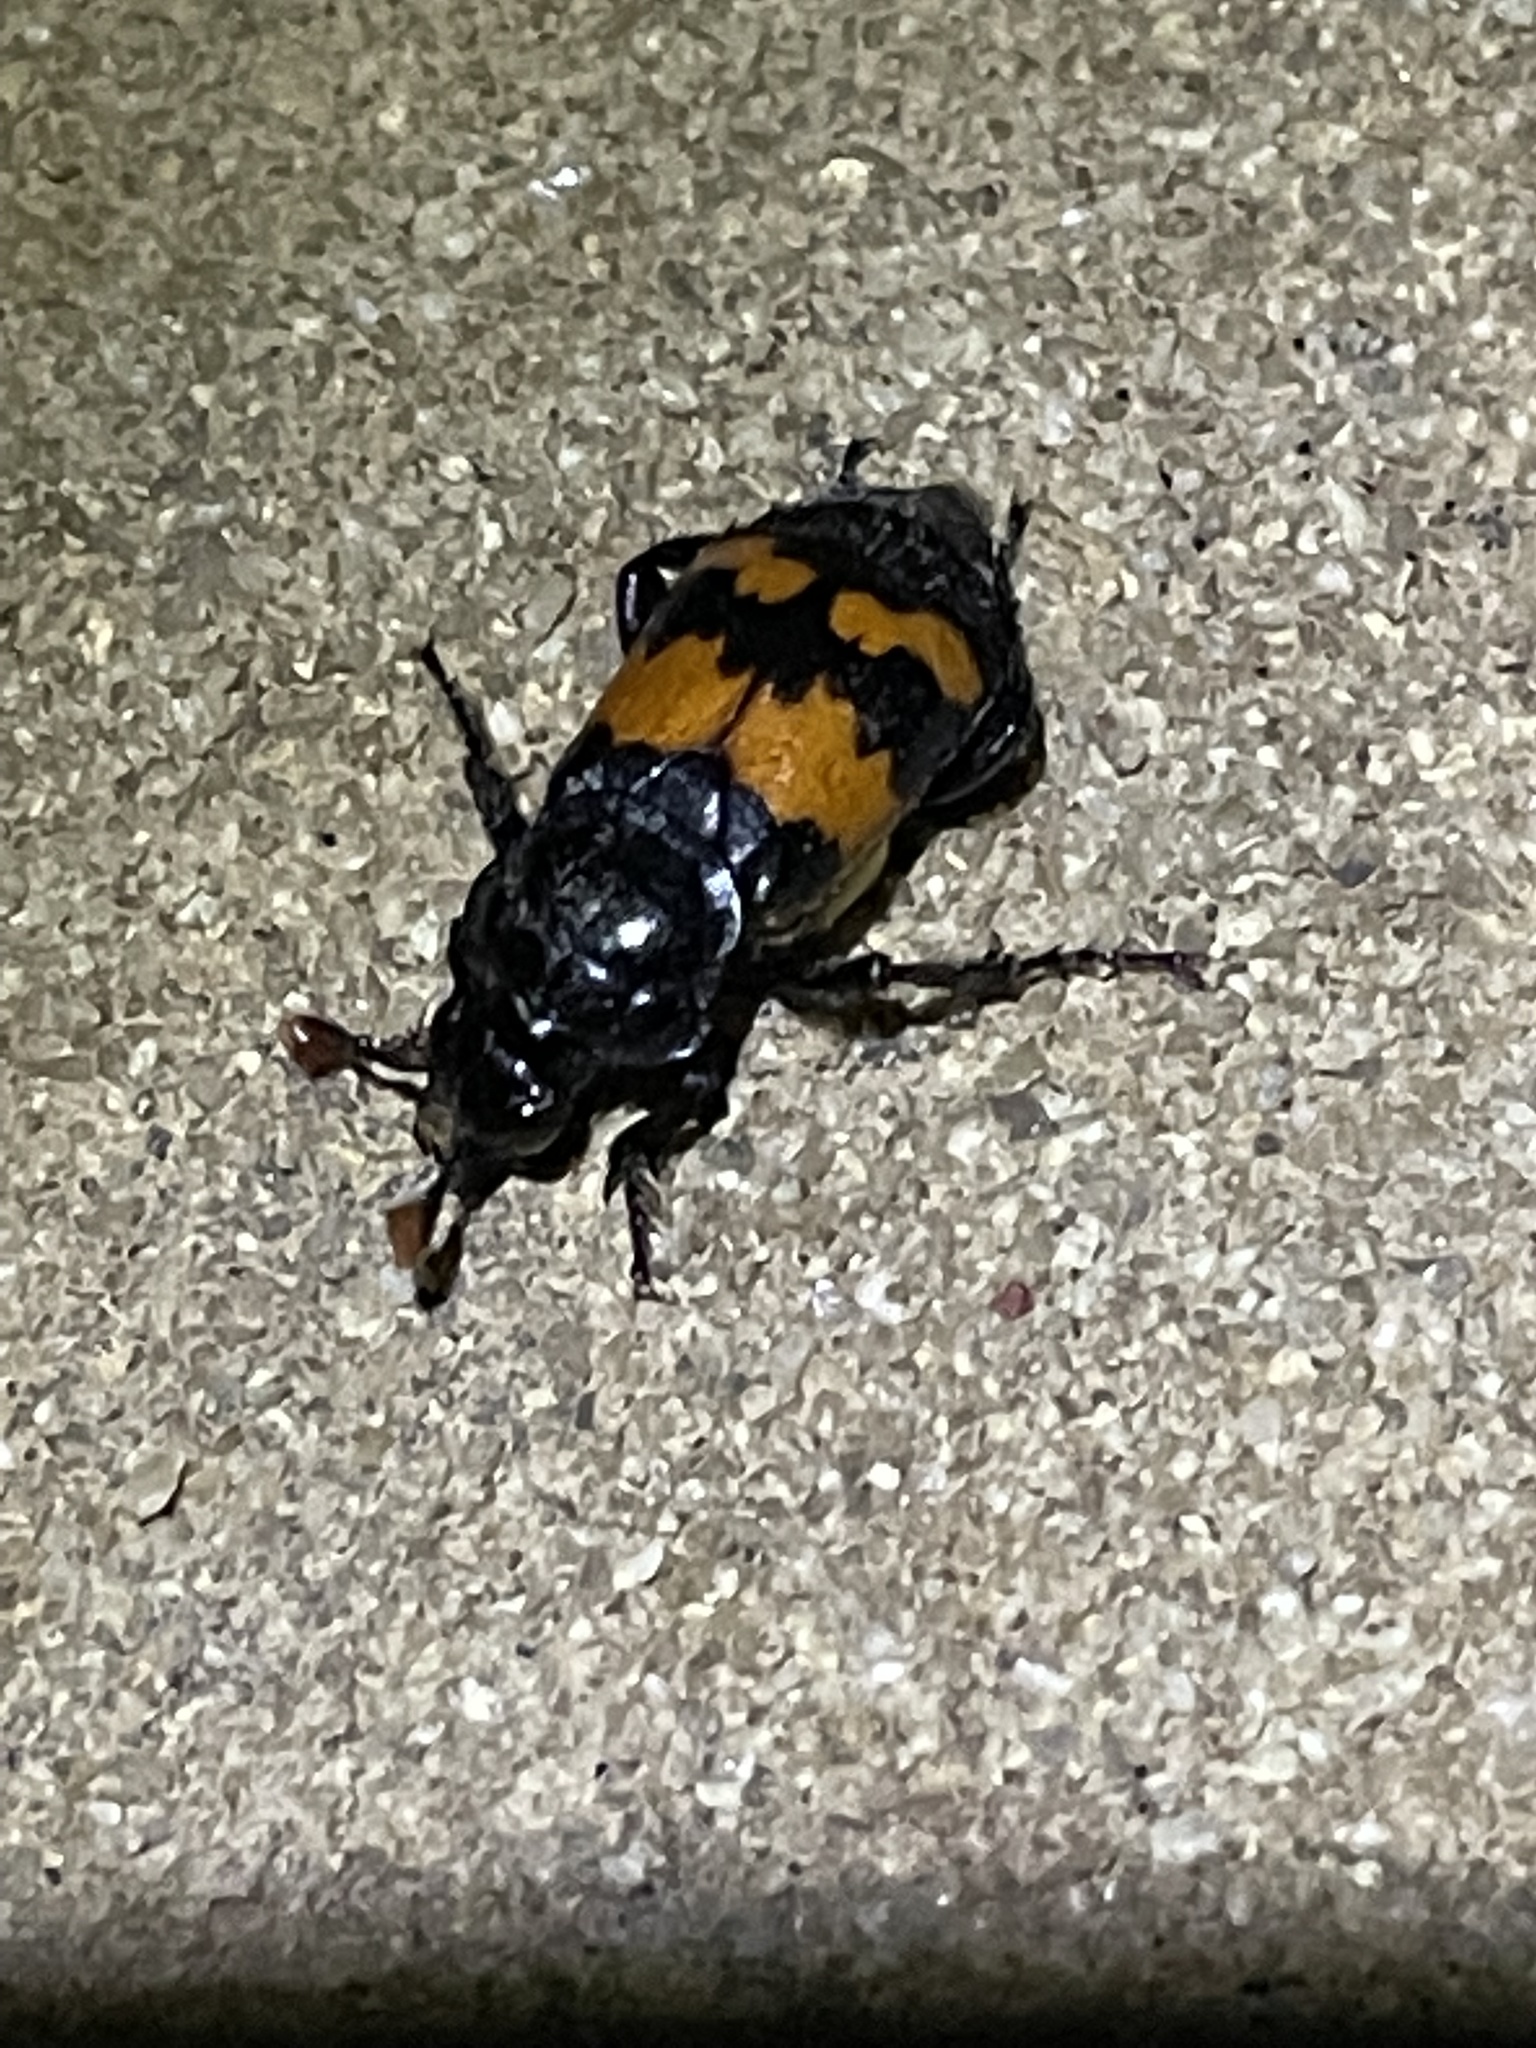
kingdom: Animalia
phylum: Arthropoda
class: Insecta
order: Coleoptera
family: Staphylinidae
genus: Nicrophorus
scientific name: Nicrophorus guttula
